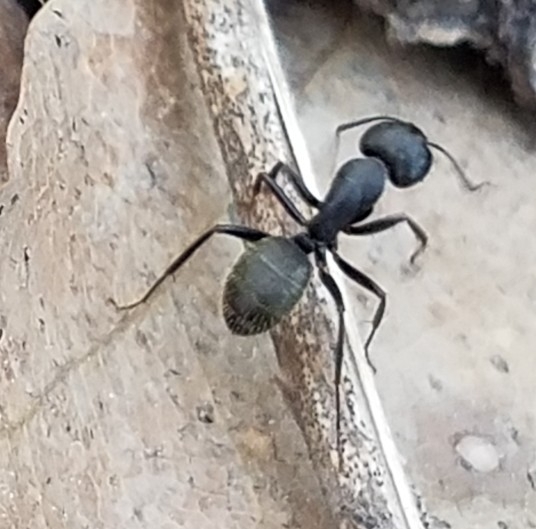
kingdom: Animalia
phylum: Arthropoda
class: Insecta
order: Hymenoptera
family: Formicidae
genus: Camponotus
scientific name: Camponotus pennsylvanicus
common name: Black carpenter ant
